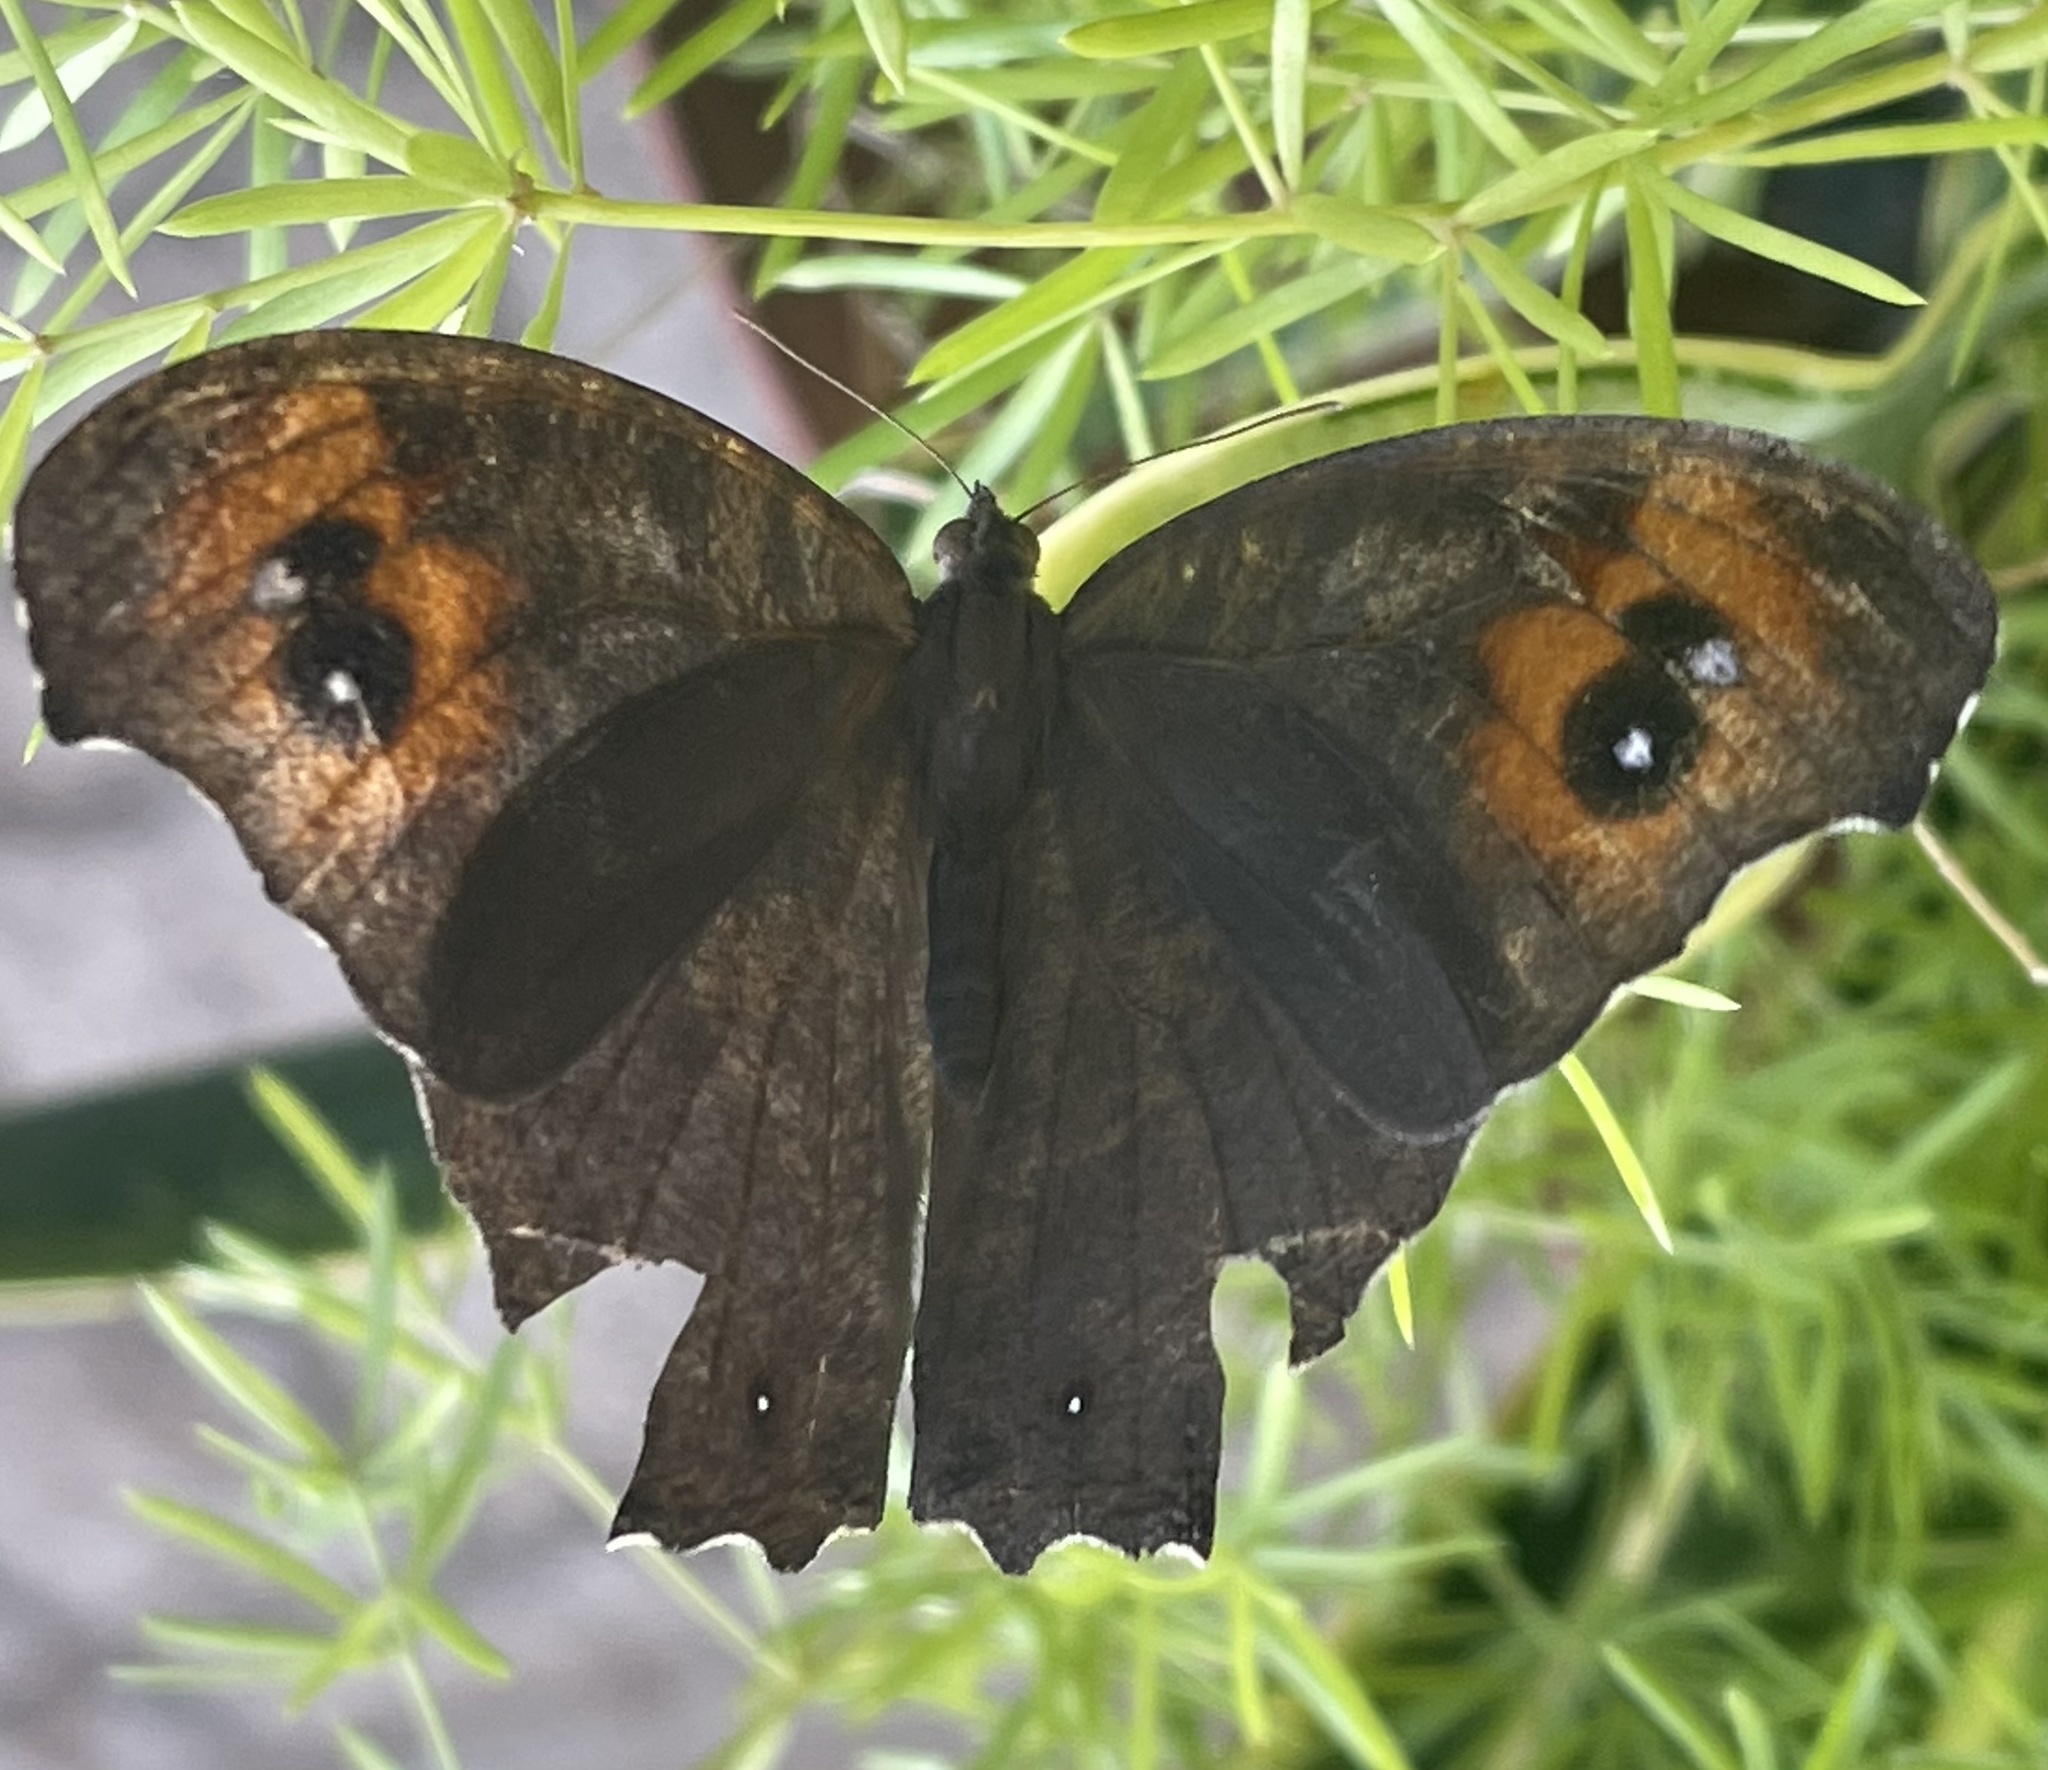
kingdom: Animalia
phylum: Arthropoda
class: Insecta
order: Lepidoptera
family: Nymphalidae
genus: Melanitis
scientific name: Melanitis leda
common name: Twilight brown
